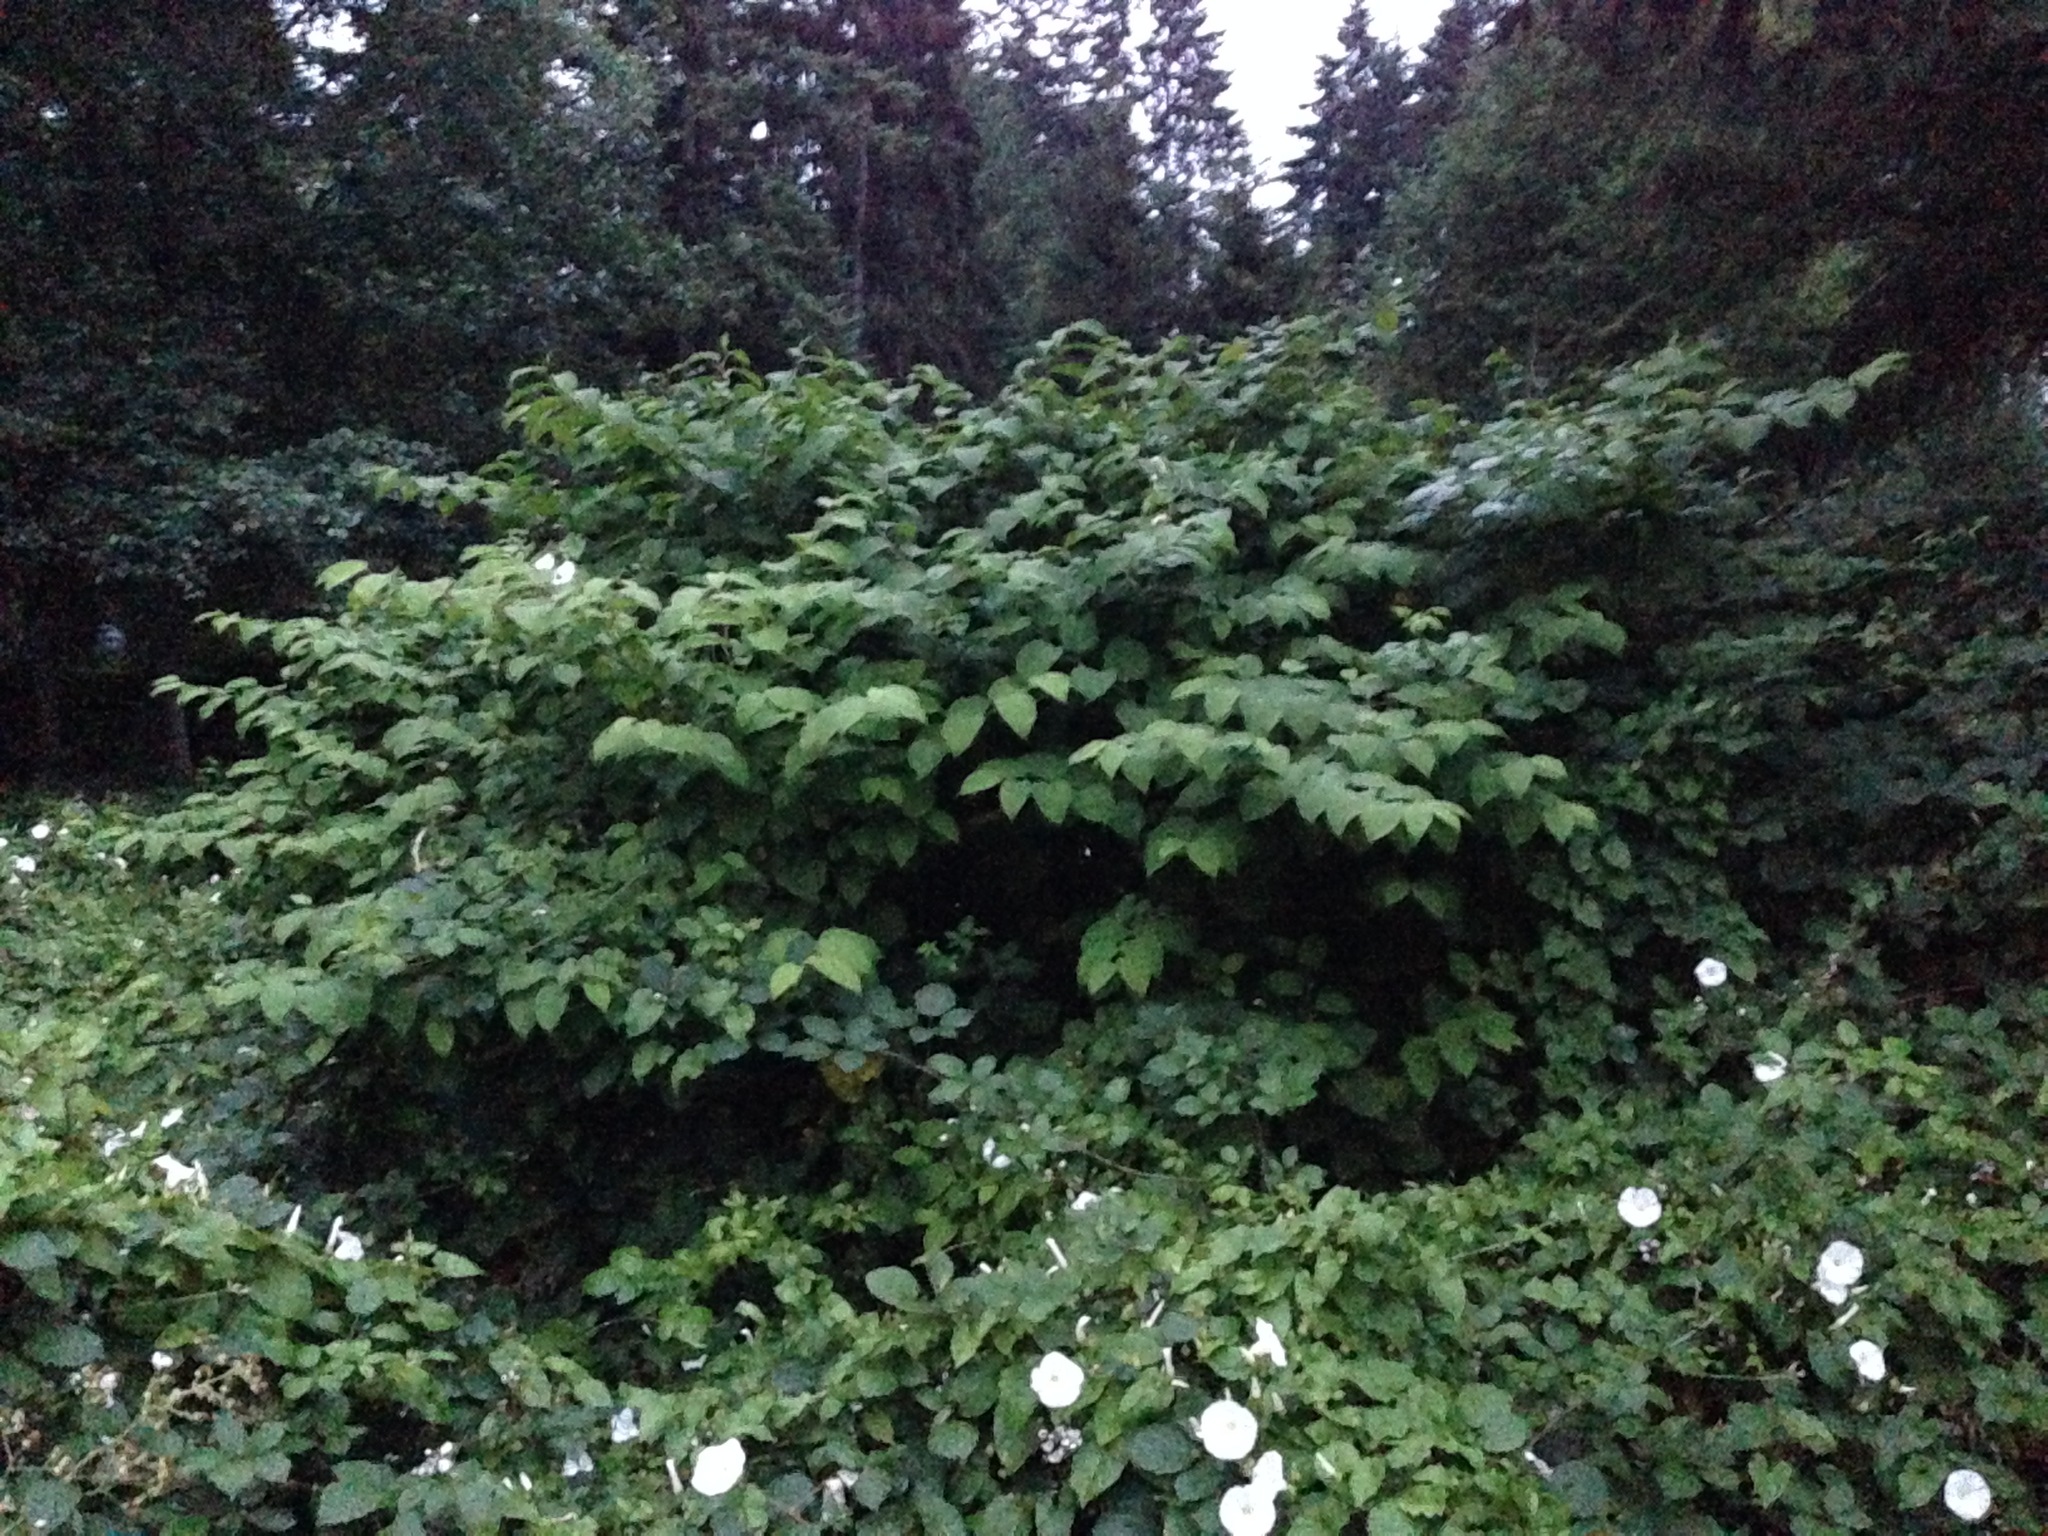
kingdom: Plantae
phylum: Tracheophyta
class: Magnoliopsida
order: Caryophyllales
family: Polygonaceae
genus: Reynoutria
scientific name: Reynoutria japonica
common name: Japanese knotweed
